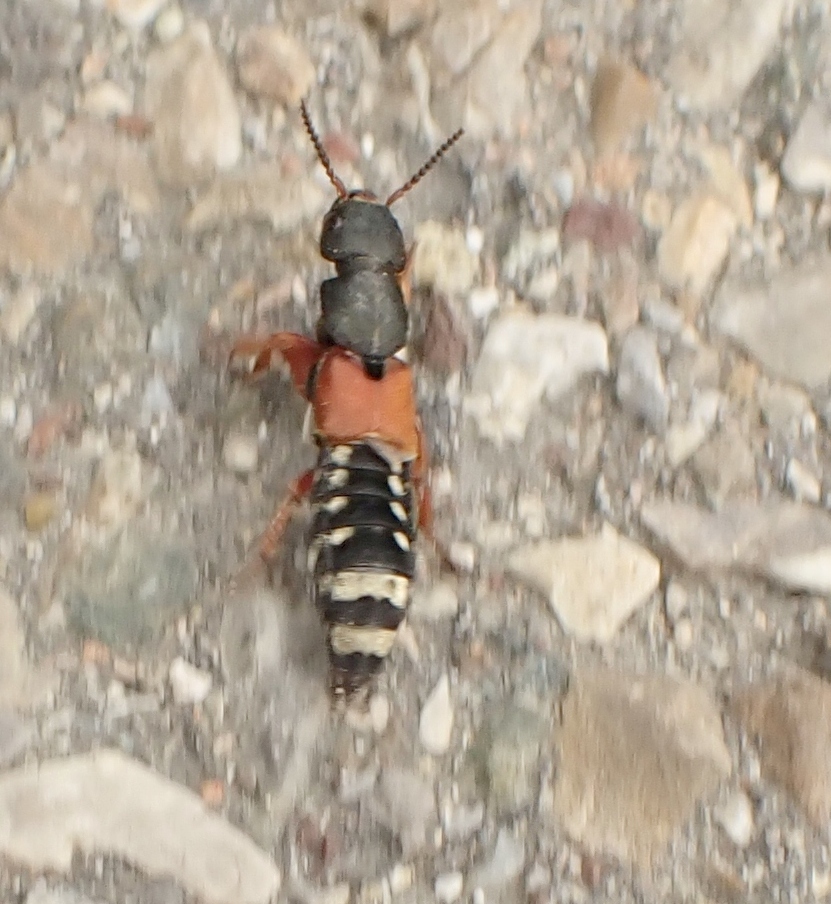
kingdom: Animalia
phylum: Arthropoda
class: Insecta
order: Coleoptera
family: Staphylinidae
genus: Platydracus
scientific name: Platydracus stercorarius
